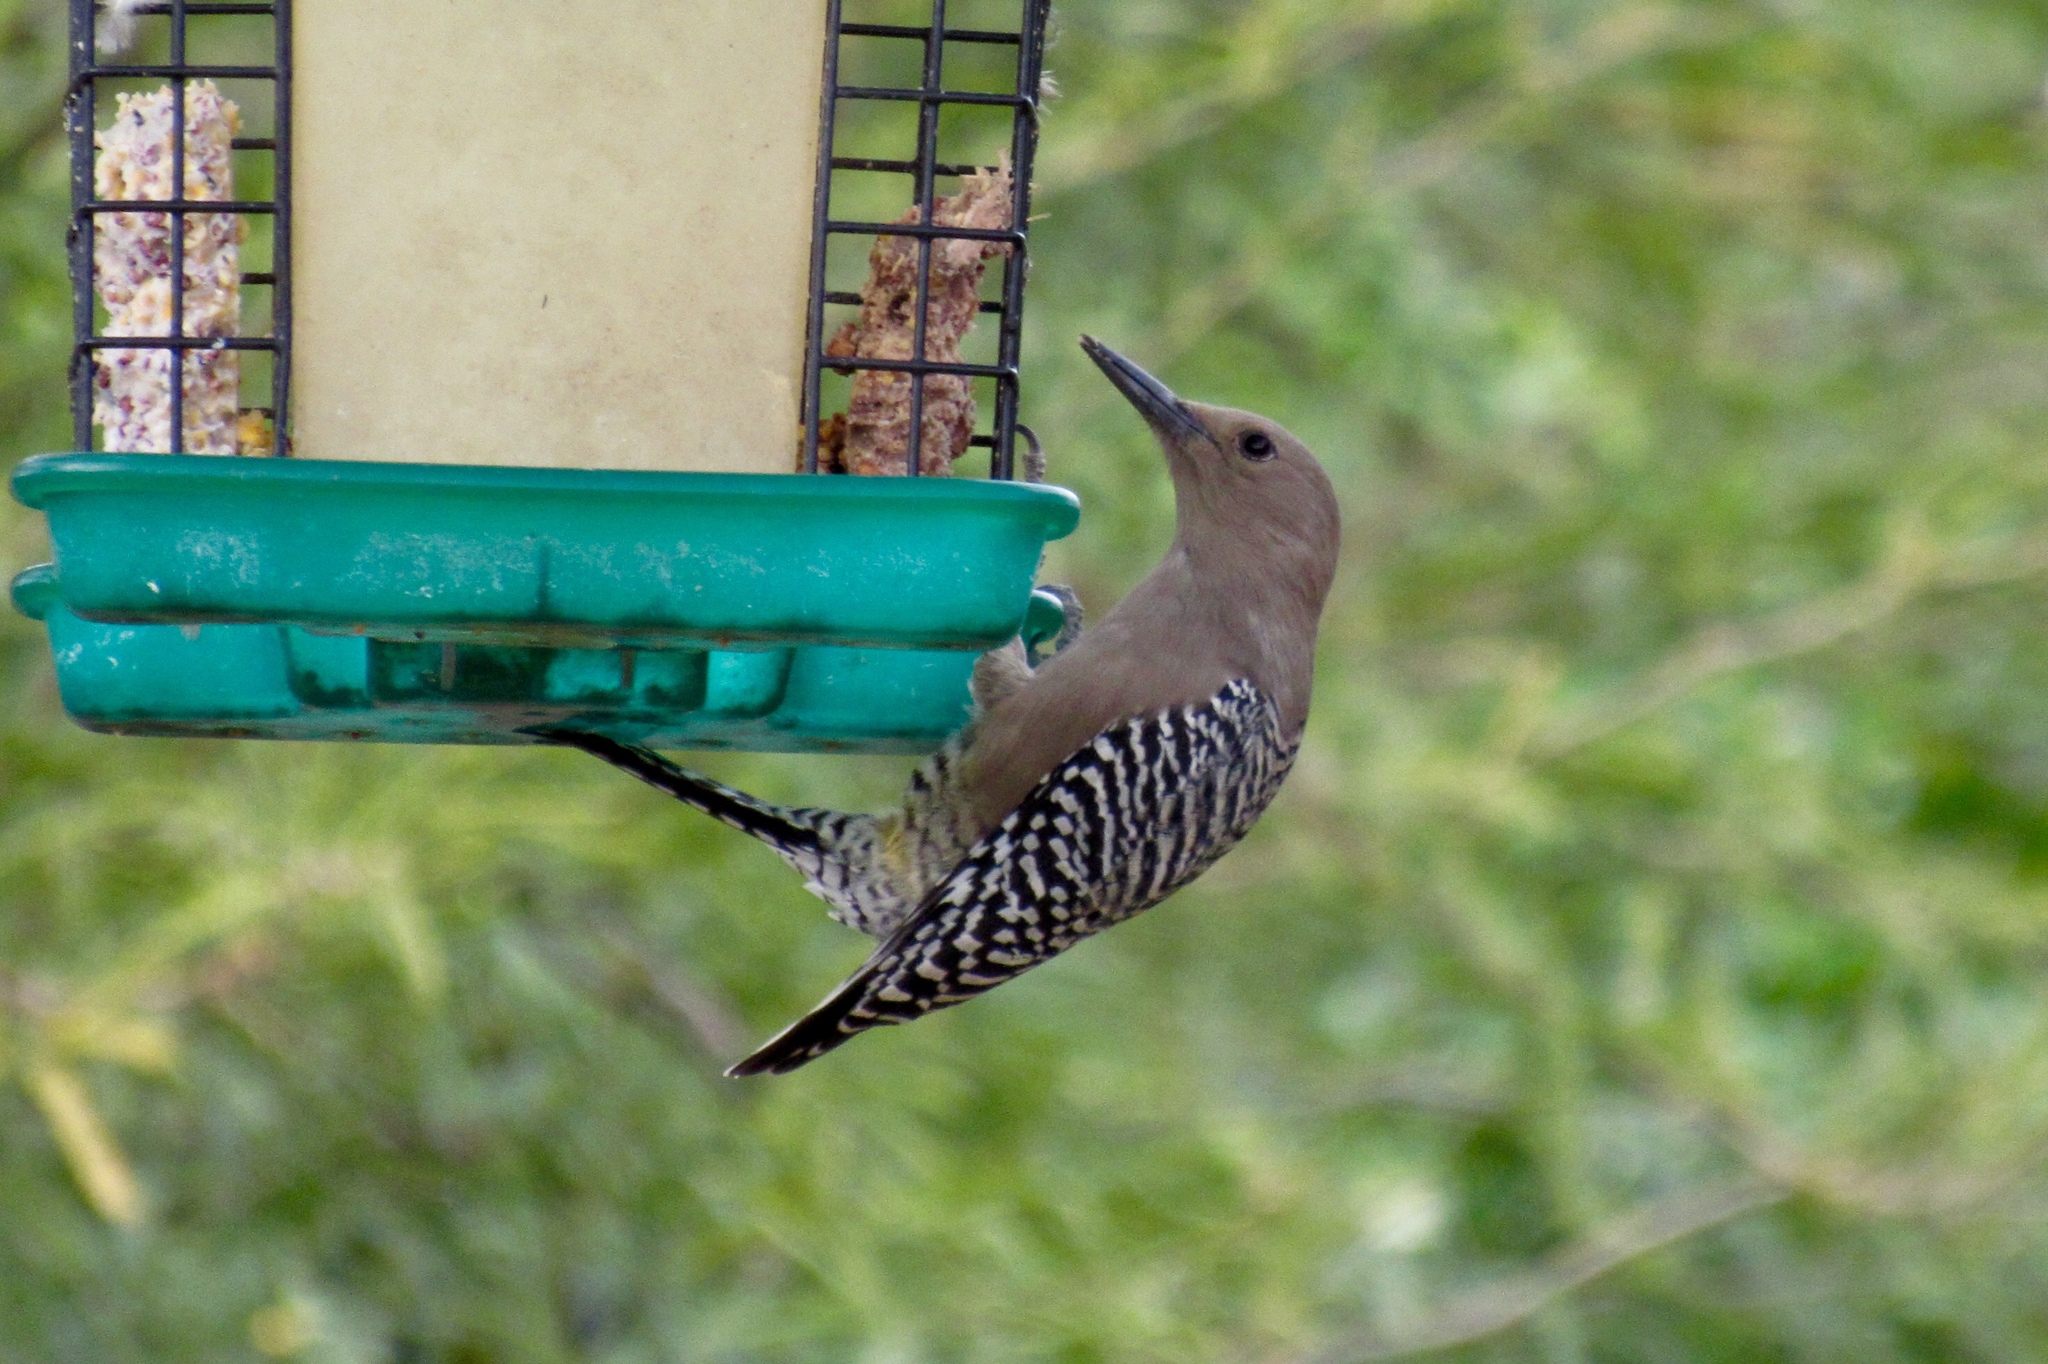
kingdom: Animalia
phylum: Chordata
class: Aves
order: Piciformes
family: Picidae
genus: Melanerpes
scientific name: Melanerpes uropygialis
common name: Gila woodpecker
